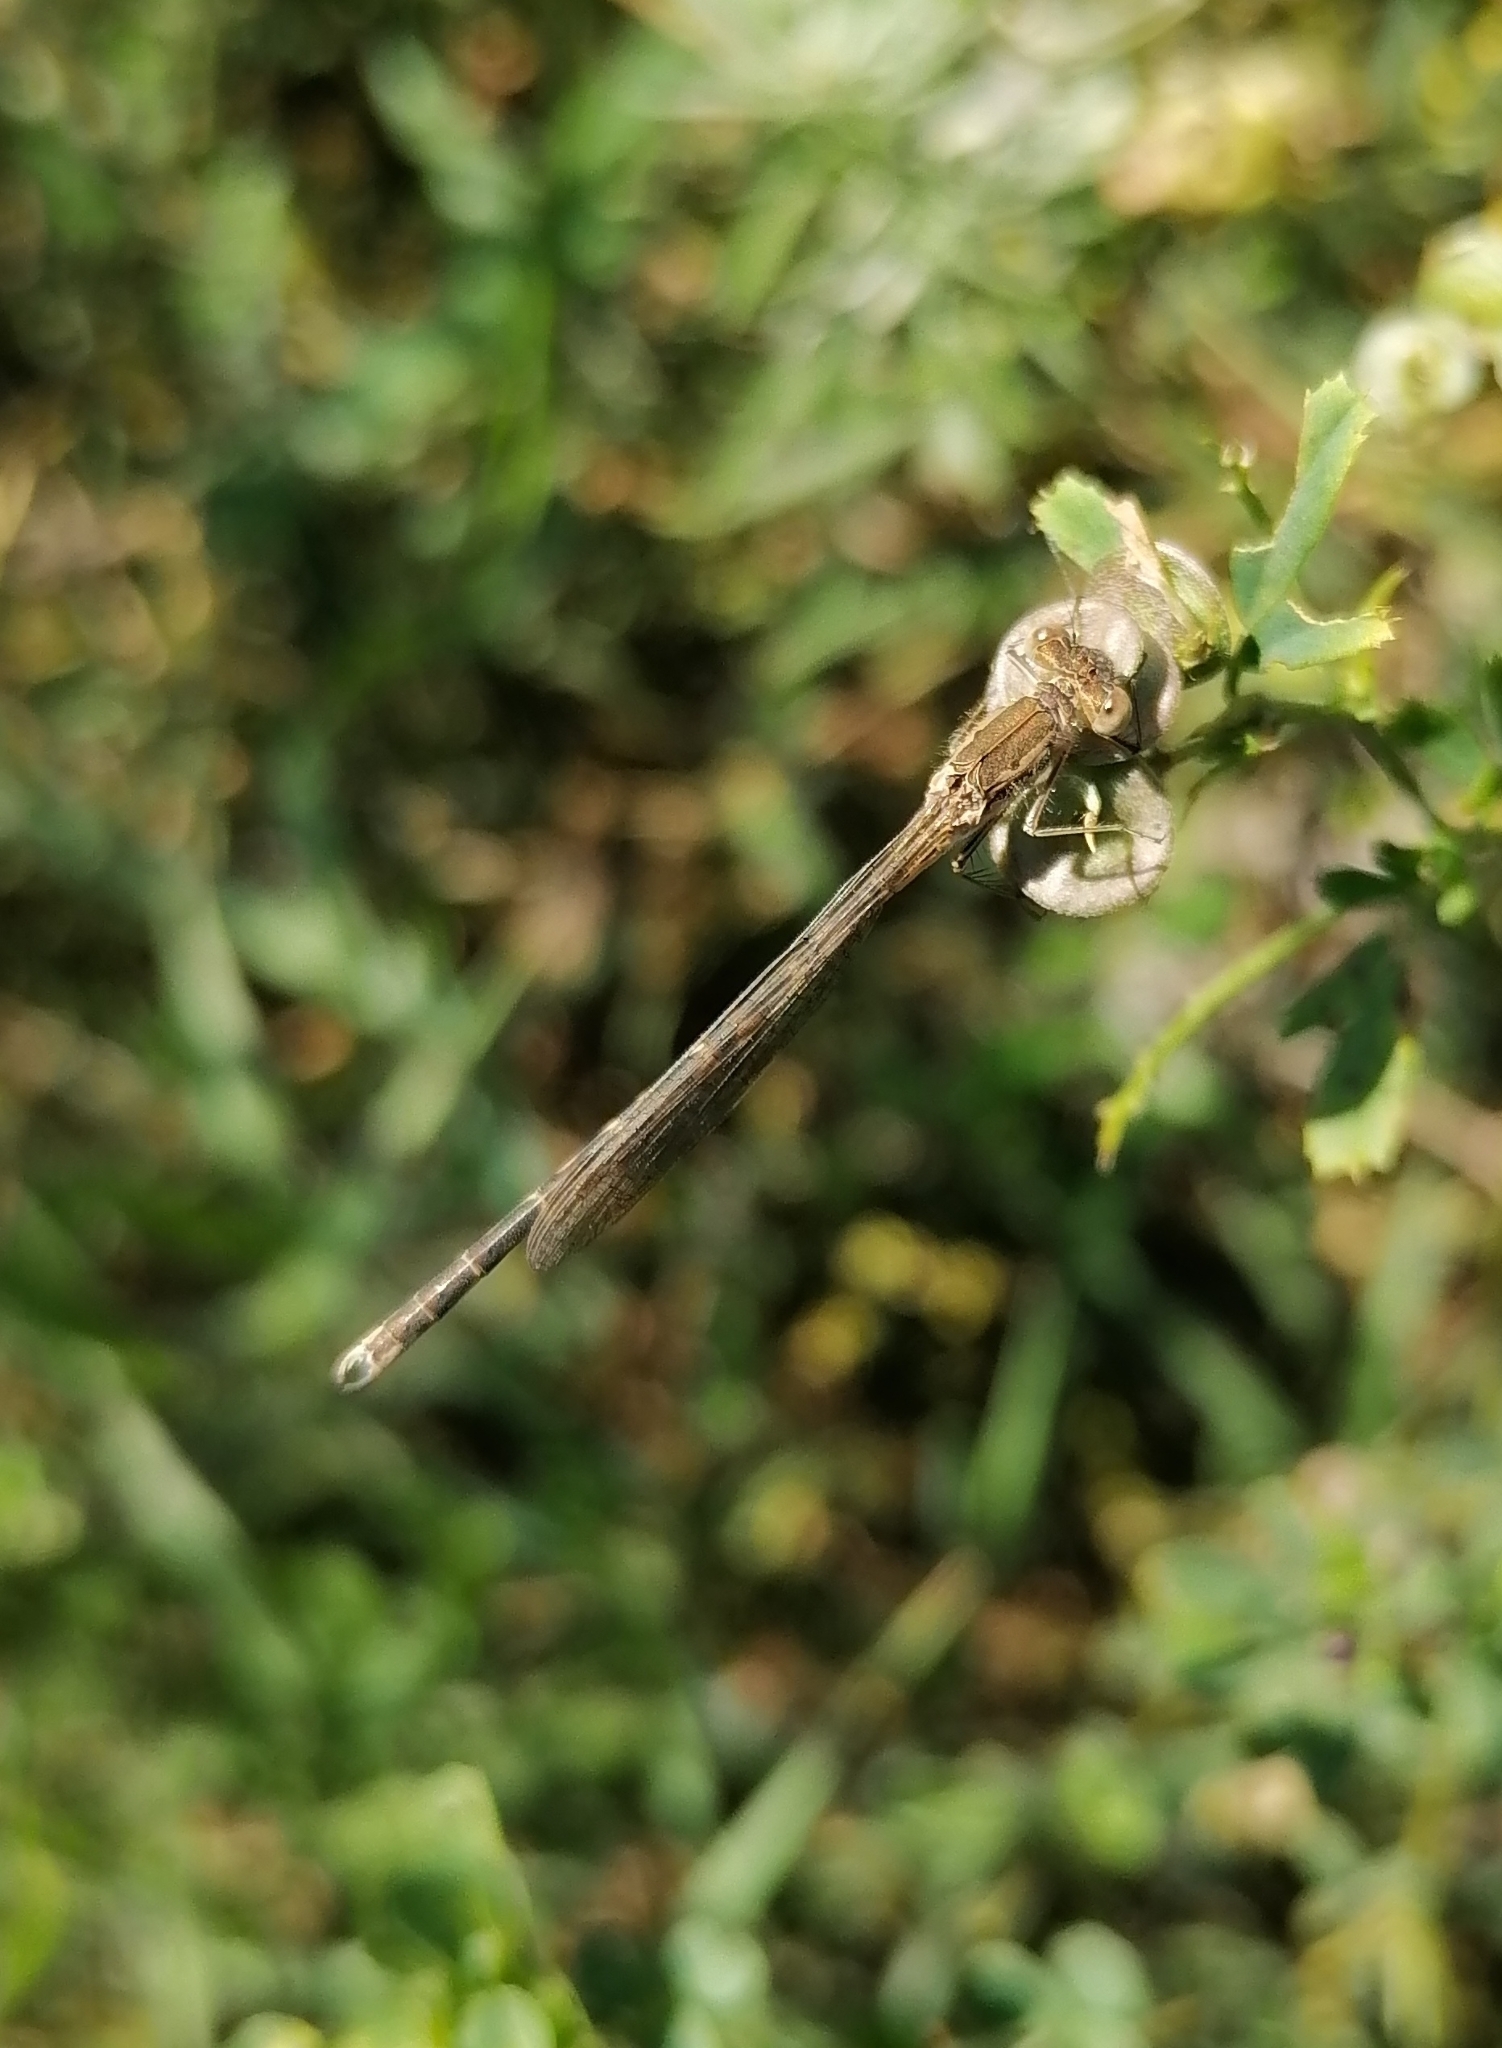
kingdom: Animalia
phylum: Arthropoda
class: Insecta
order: Odonata
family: Lestidae
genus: Sympecma
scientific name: Sympecma paedisca
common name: Siberian winter damsel
